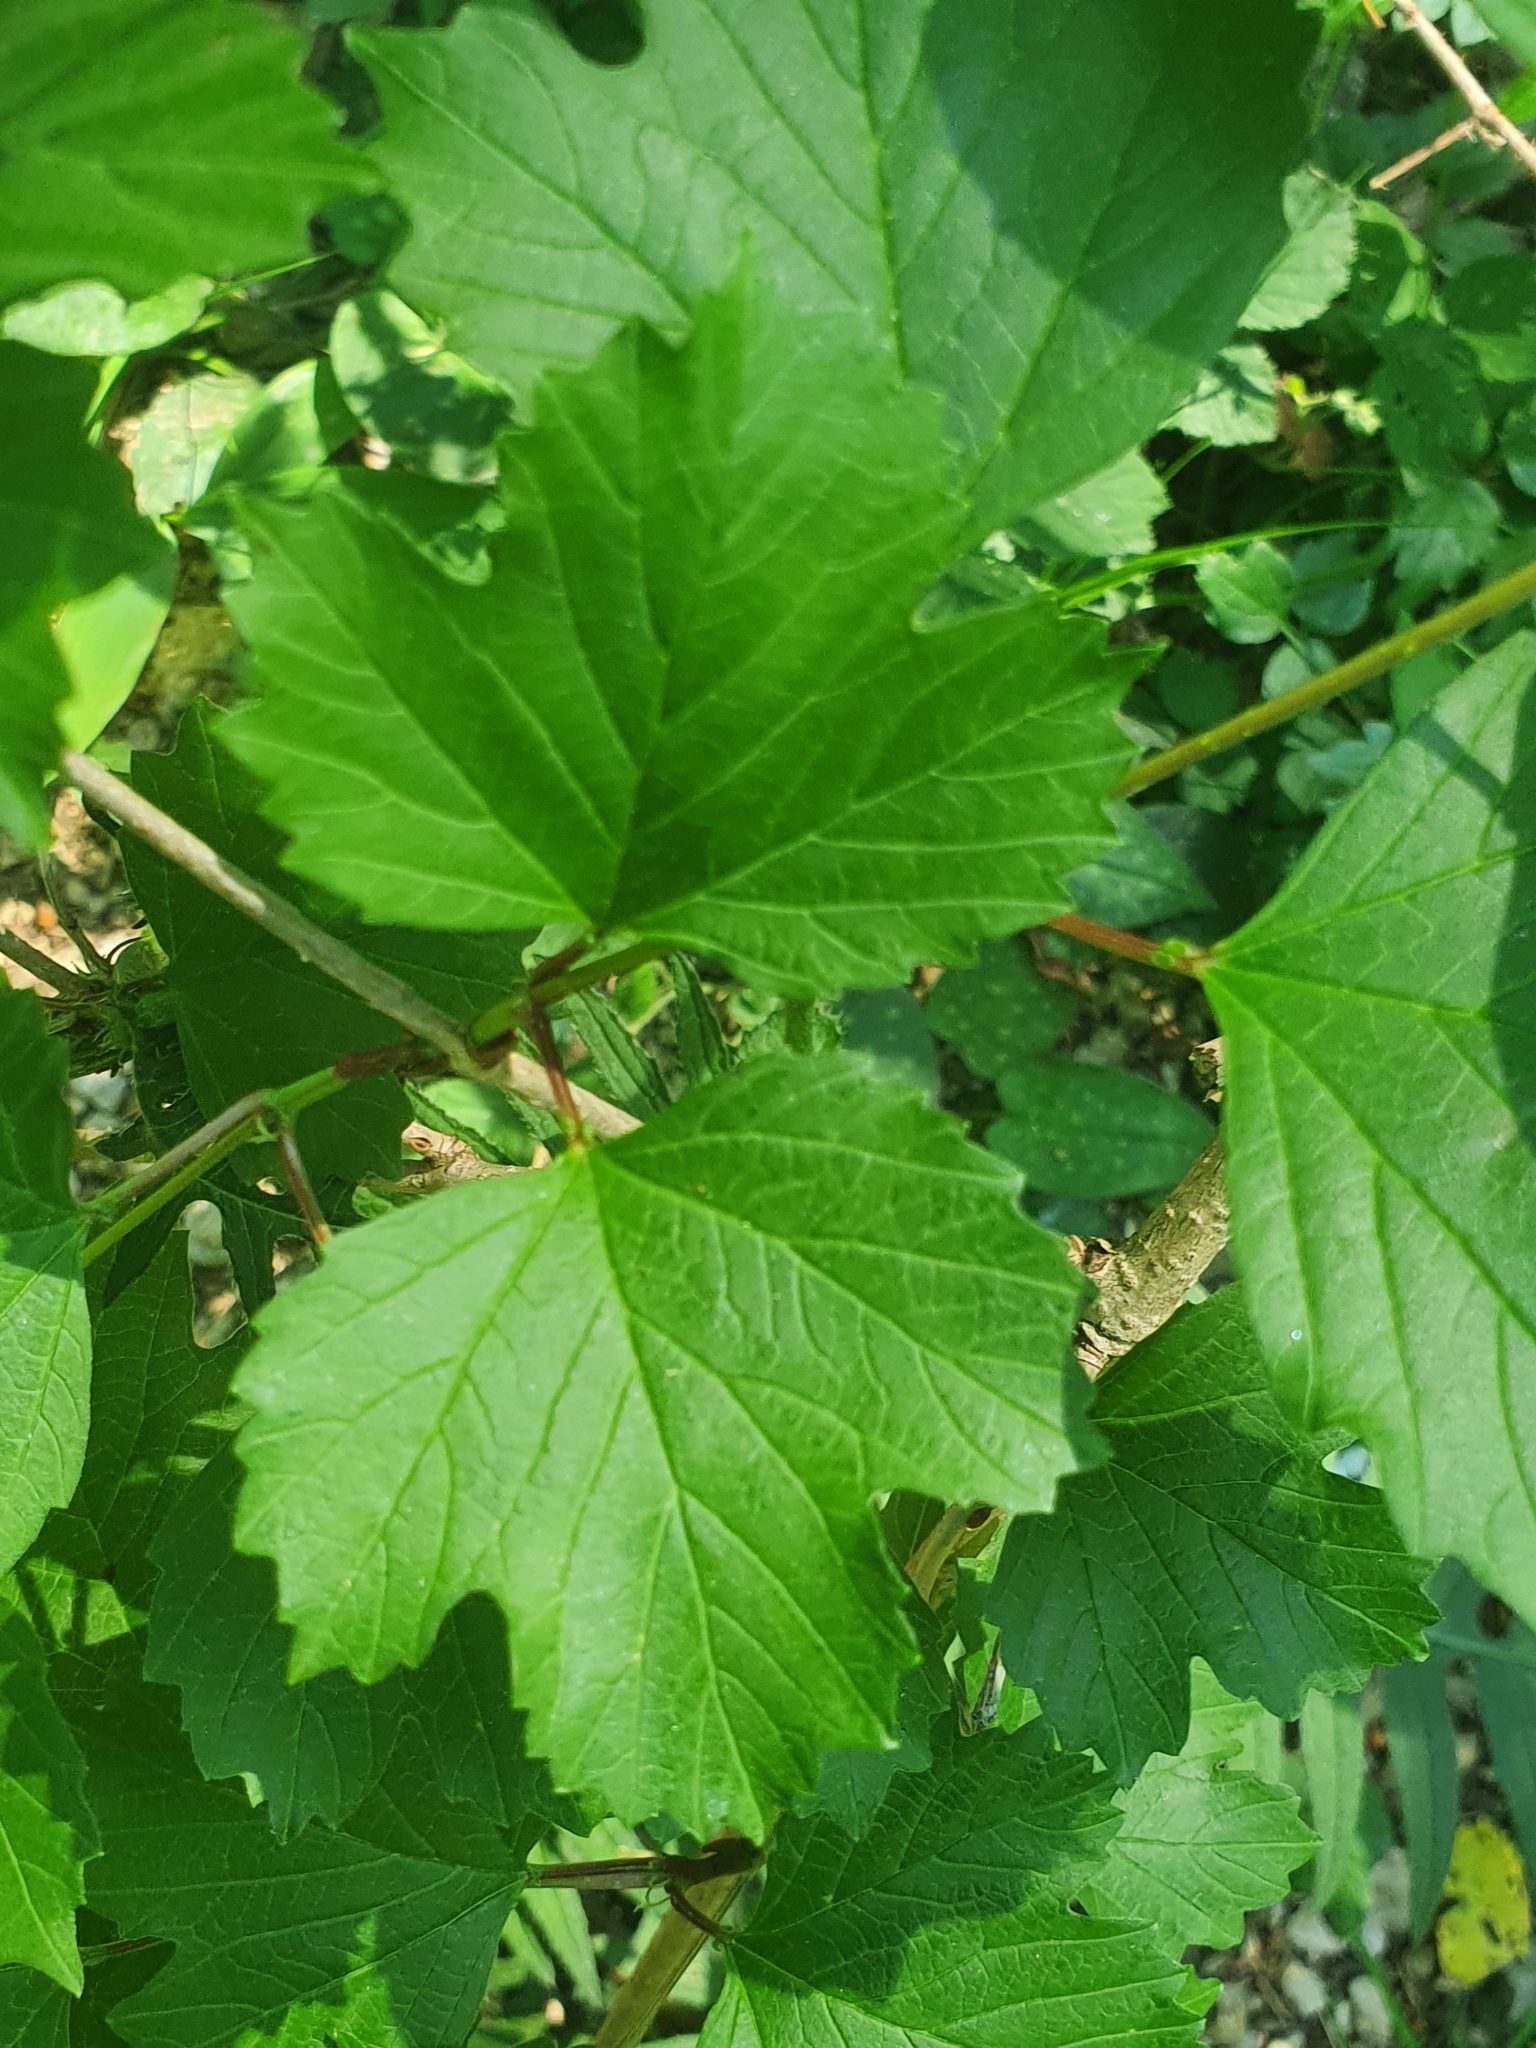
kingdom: Plantae
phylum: Tracheophyta
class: Magnoliopsida
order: Dipsacales
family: Viburnaceae
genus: Viburnum
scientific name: Viburnum opulus
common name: Guelder-rose
